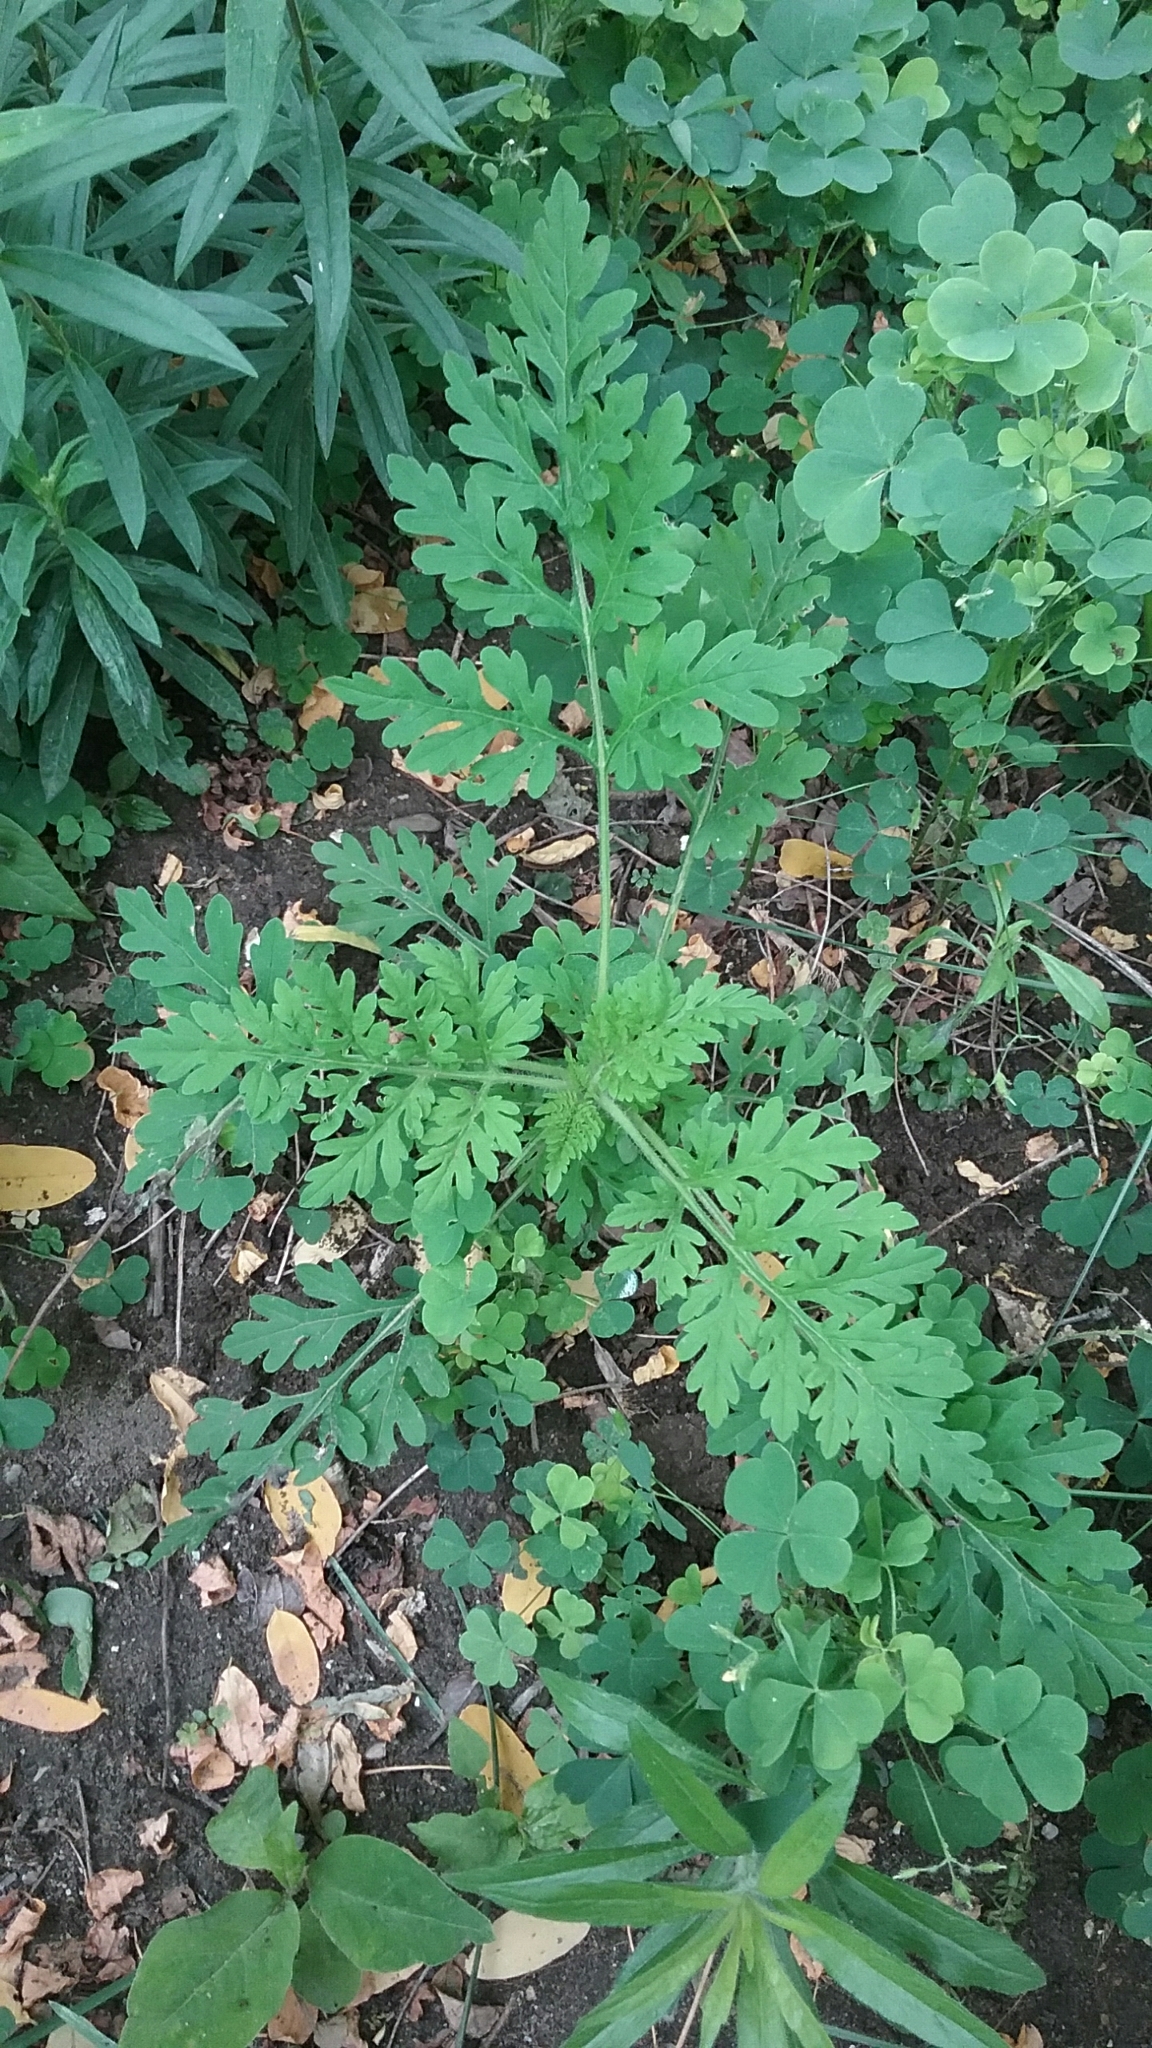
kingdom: Plantae
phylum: Tracheophyta
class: Magnoliopsida
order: Asterales
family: Asteraceae
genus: Ambrosia
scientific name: Ambrosia artemisiifolia
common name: Annual ragweed
